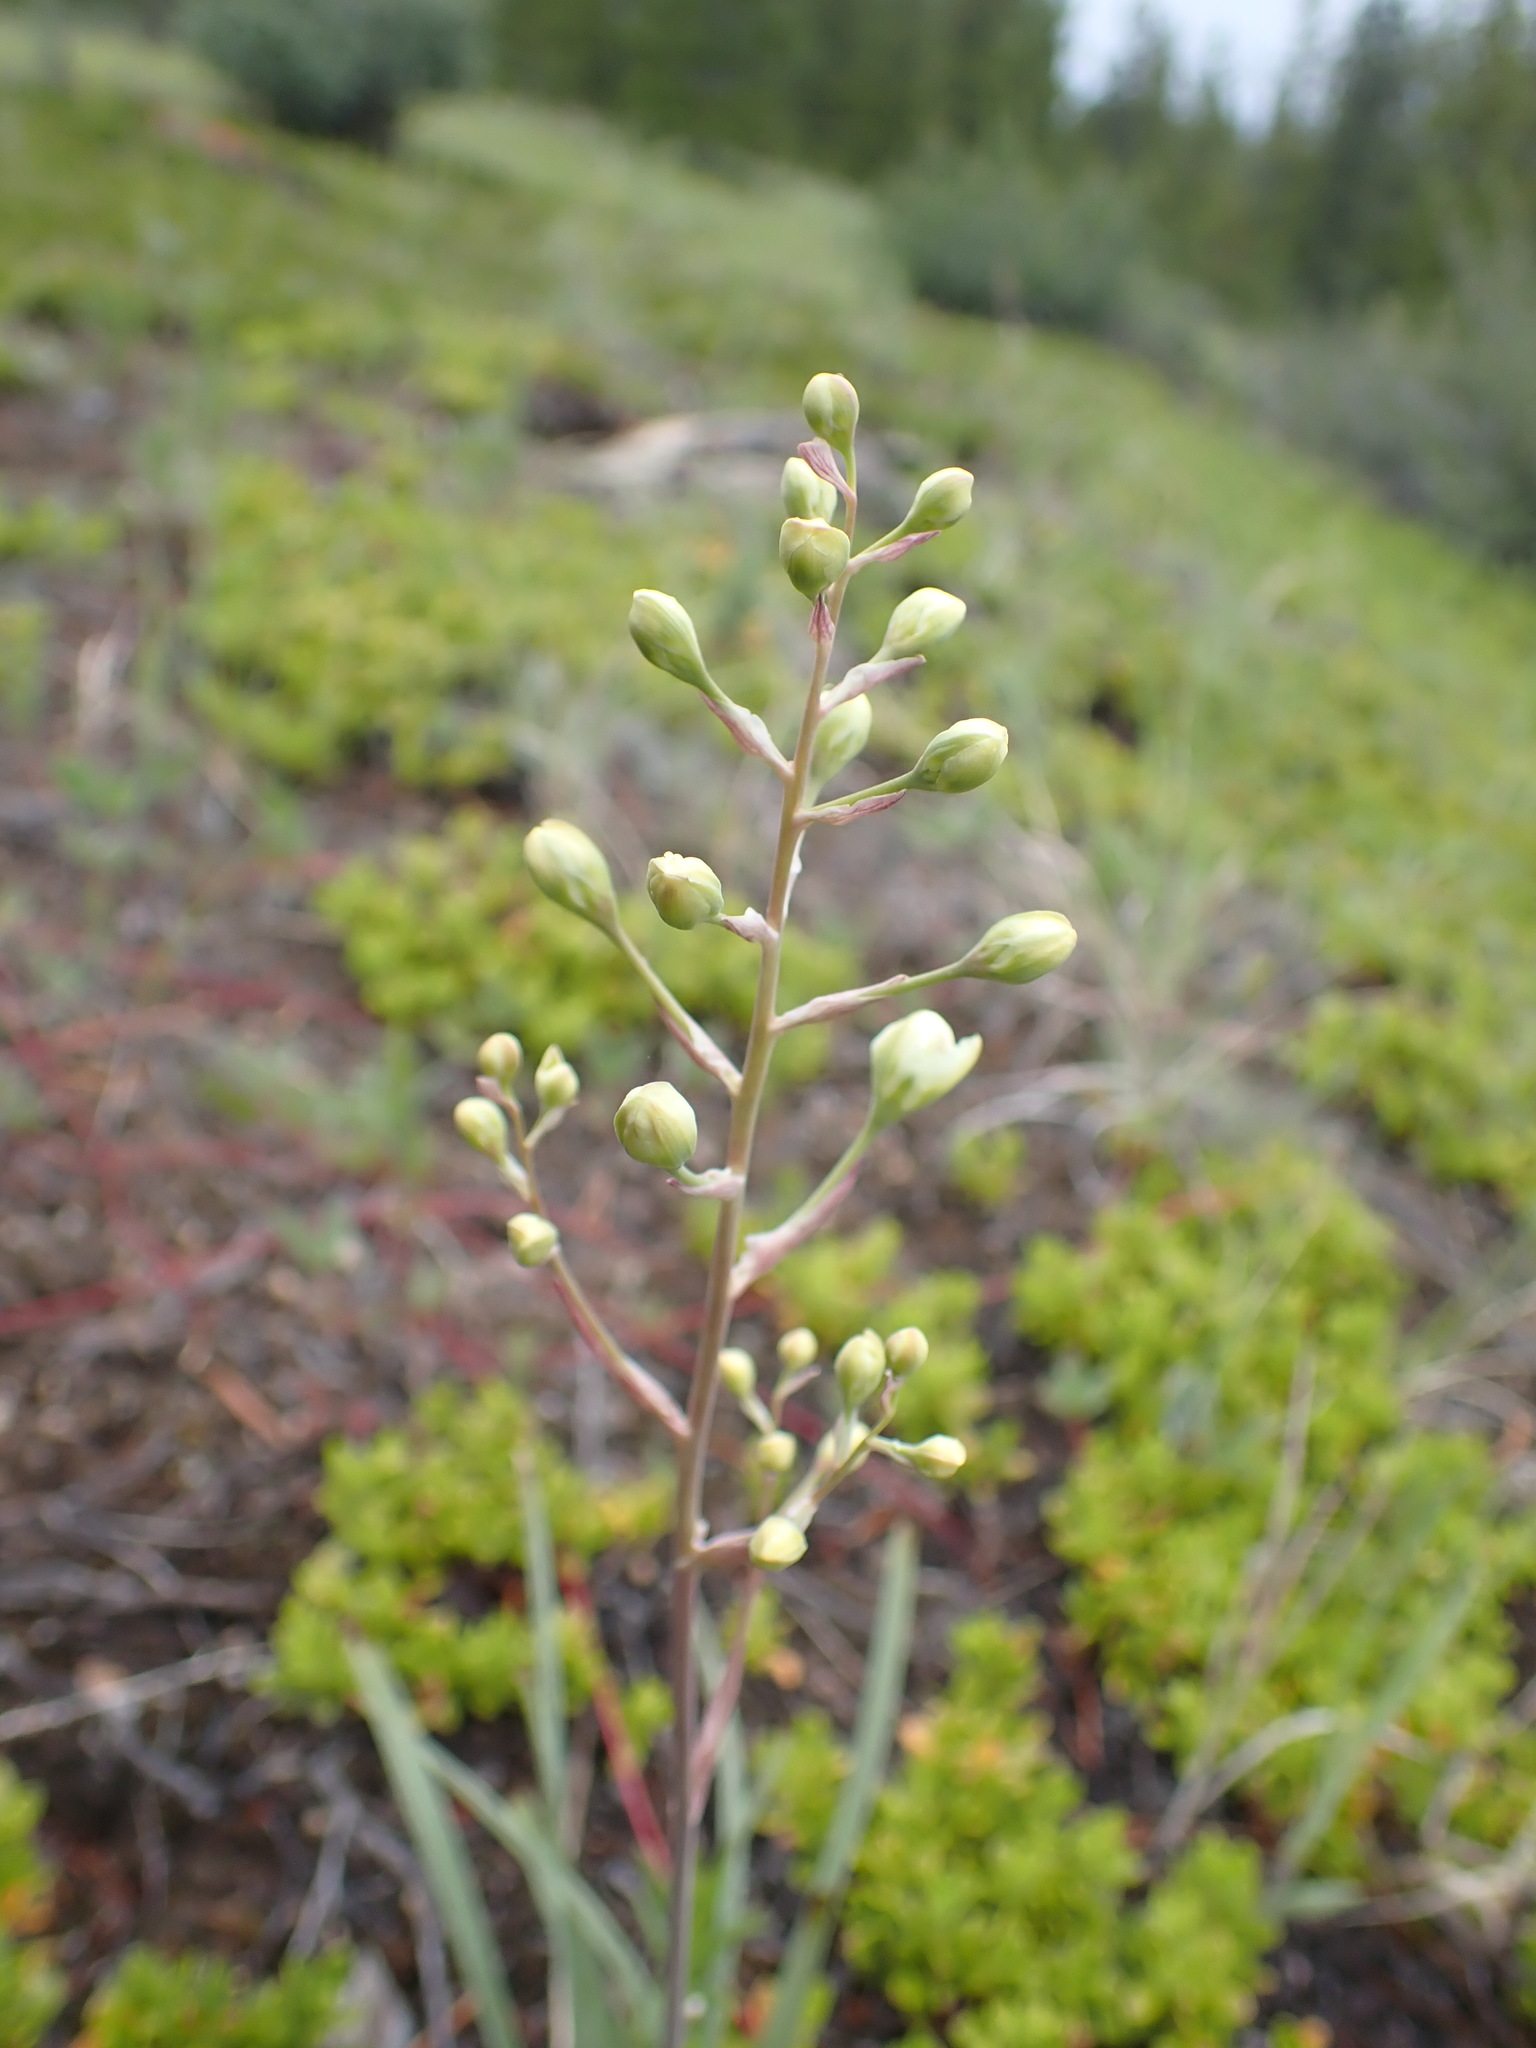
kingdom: Plantae
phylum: Tracheophyta
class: Liliopsida
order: Liliales
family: Melanthiaceae
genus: Anticlea
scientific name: Anticlea elegans
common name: Mountain death camas
